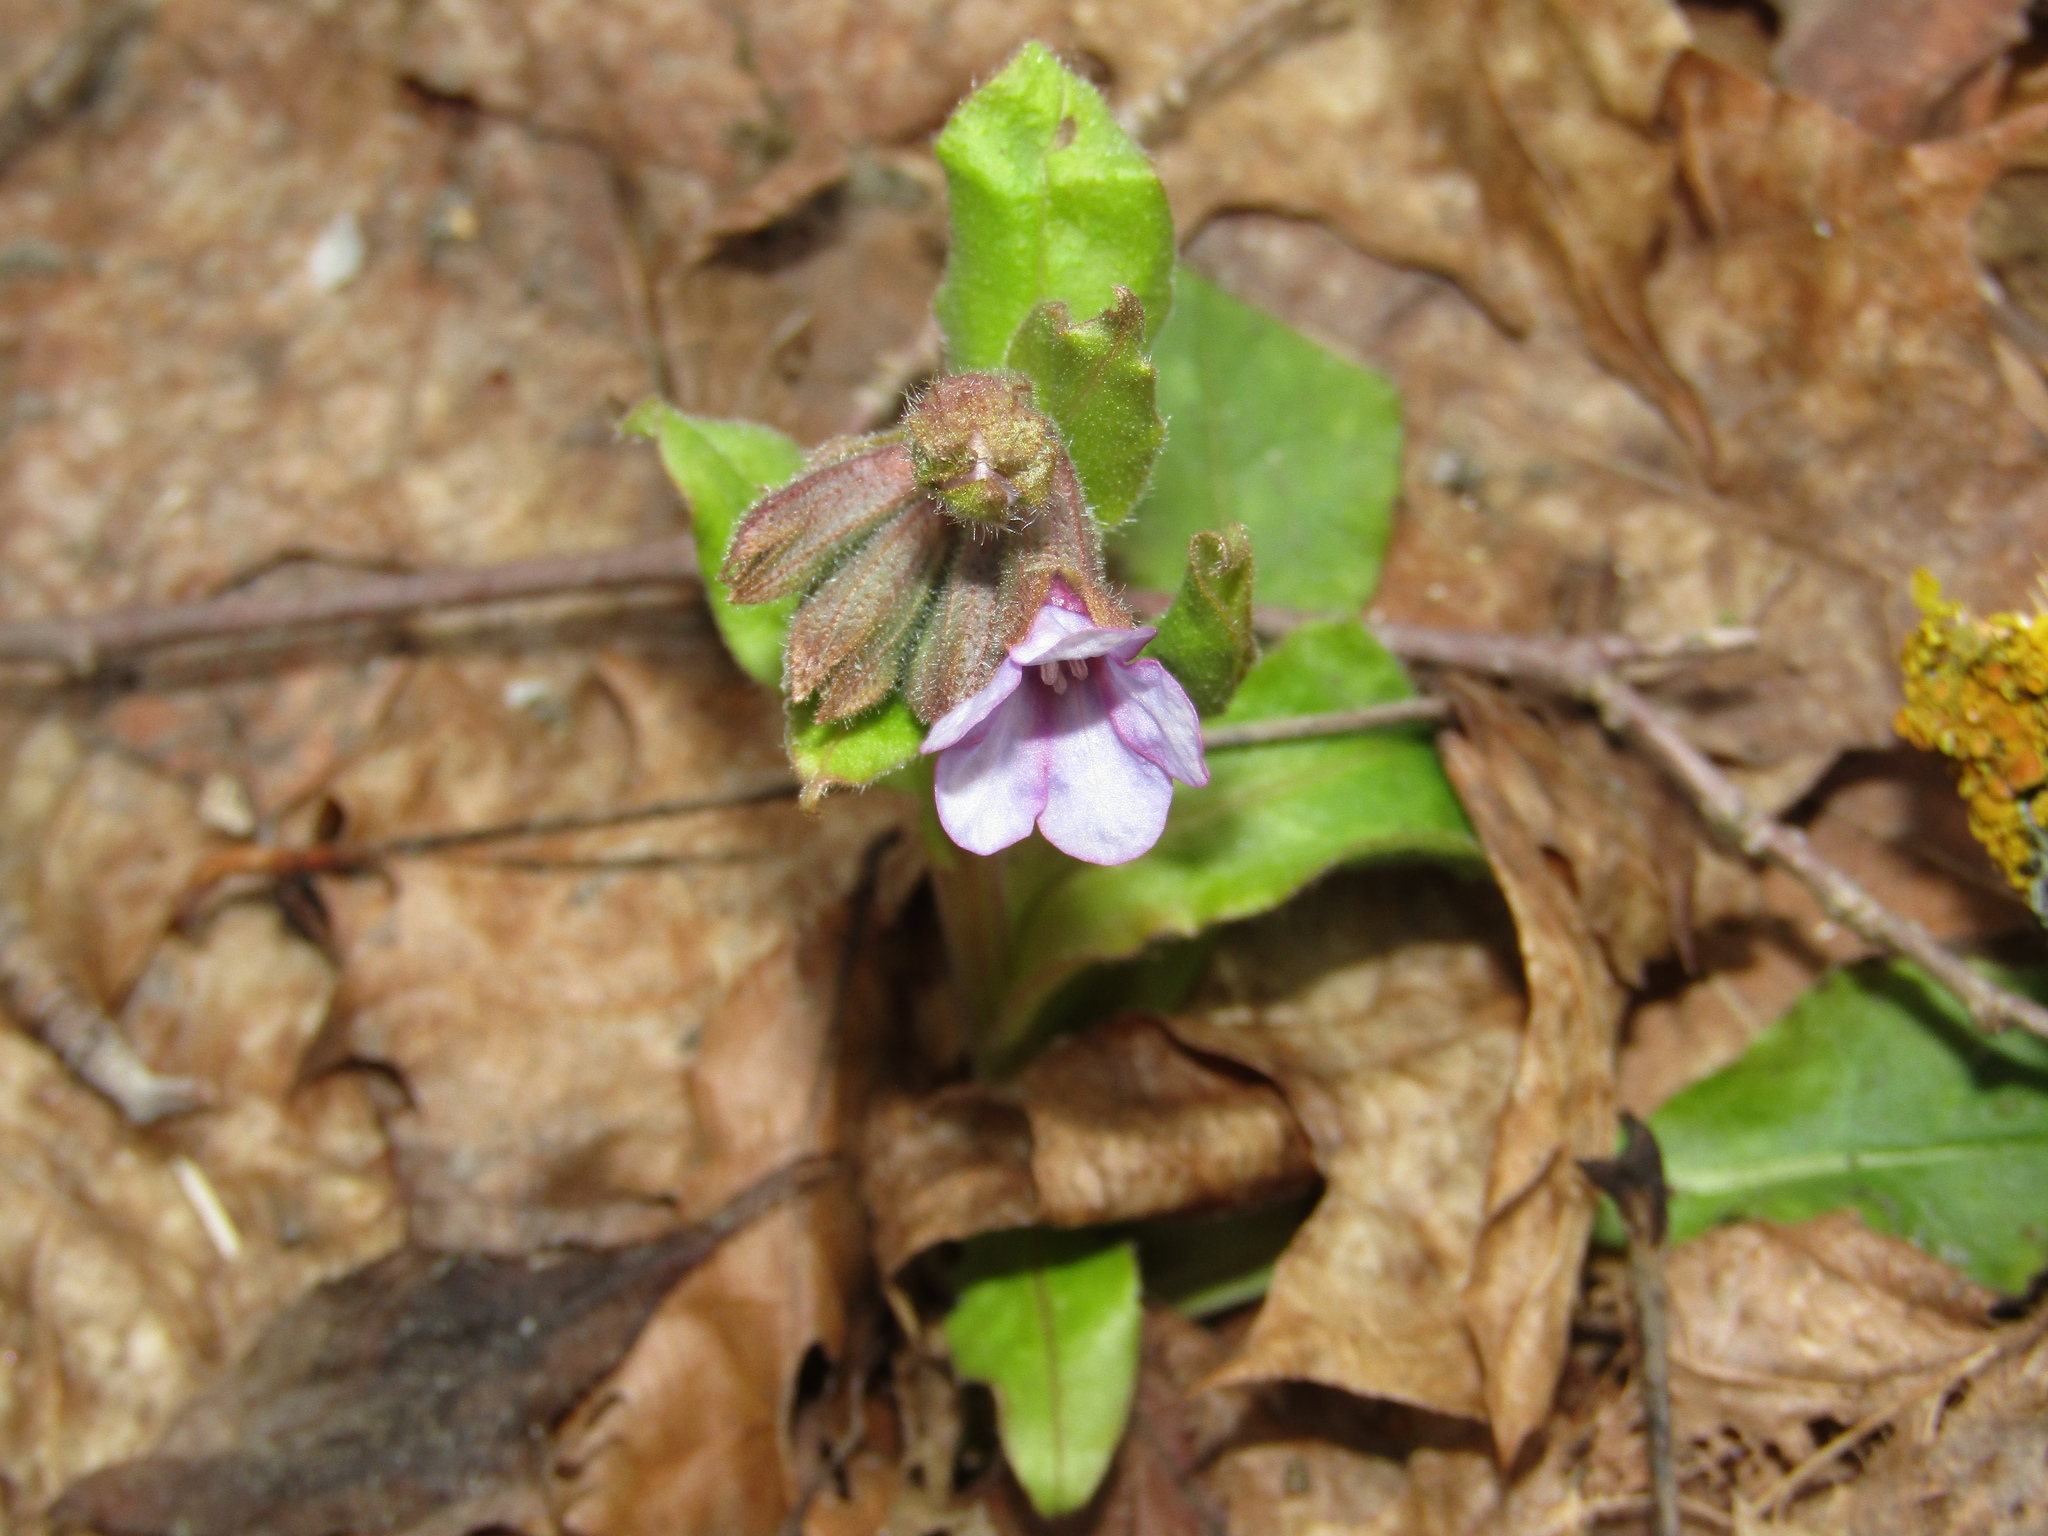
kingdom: Plantae
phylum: Tracheophyta
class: Magnoliopsida
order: Boraginales
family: Boraginaceae
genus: Pulmonaria
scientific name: Pulmonaria obscura
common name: Suffolk lungwort
